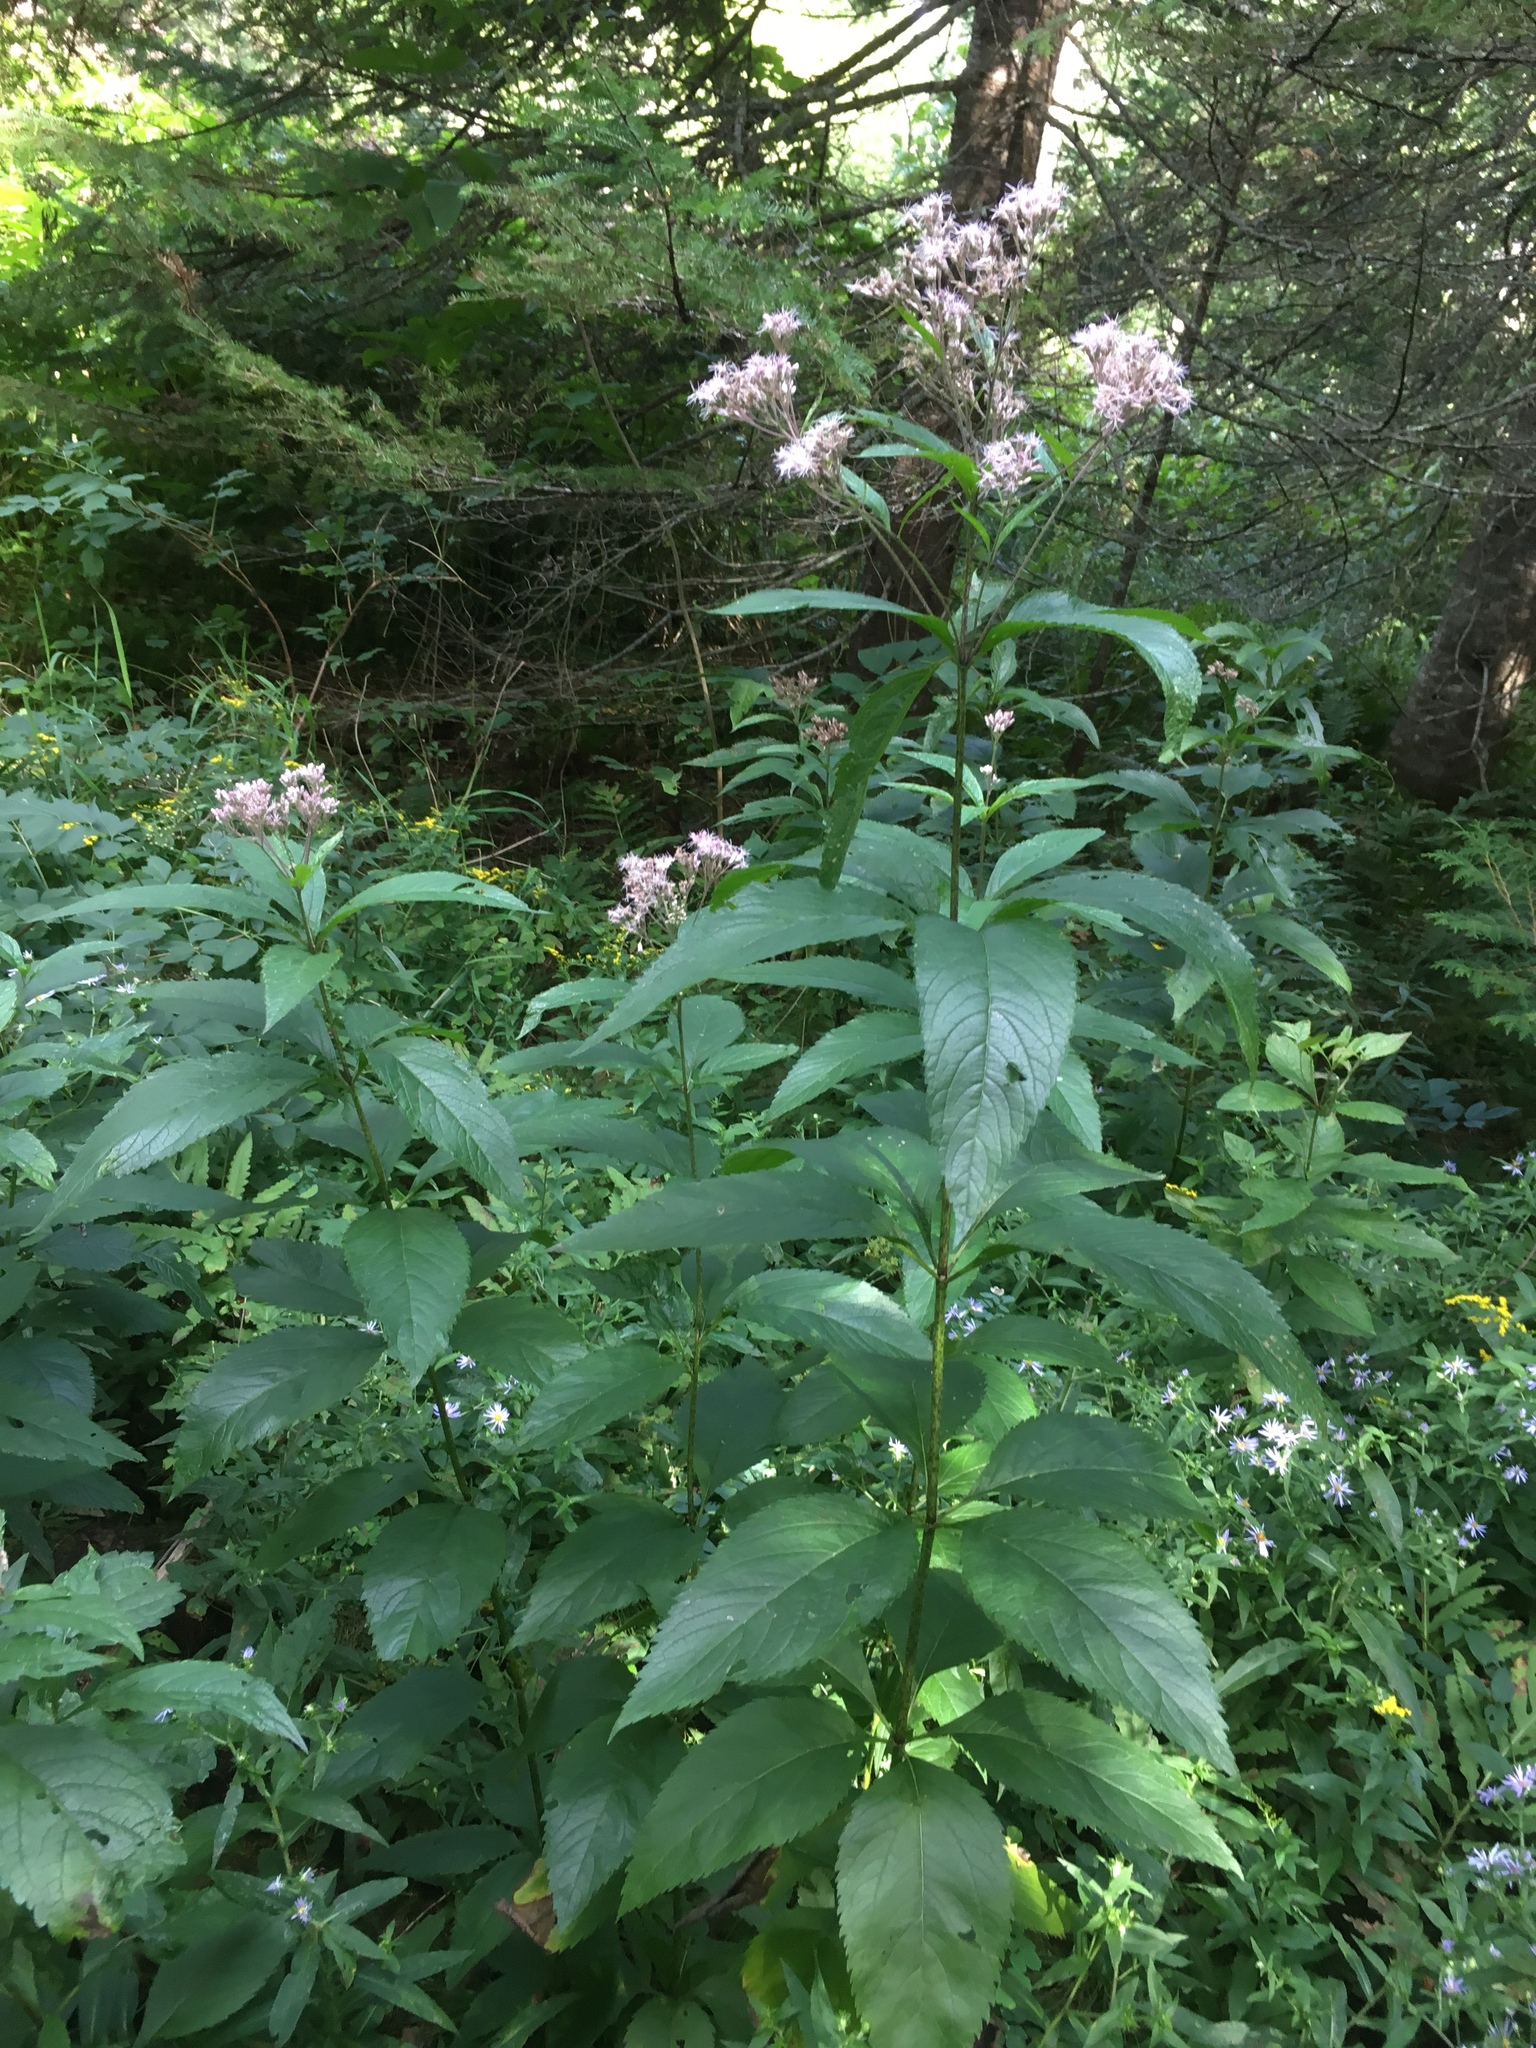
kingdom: Plantae
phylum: Tracheophyta
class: Magnoliopsida
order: Asterales
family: Asteraceae
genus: Eutrochium
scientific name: Eutrochium maculatum
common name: Spotted joe pye weed
